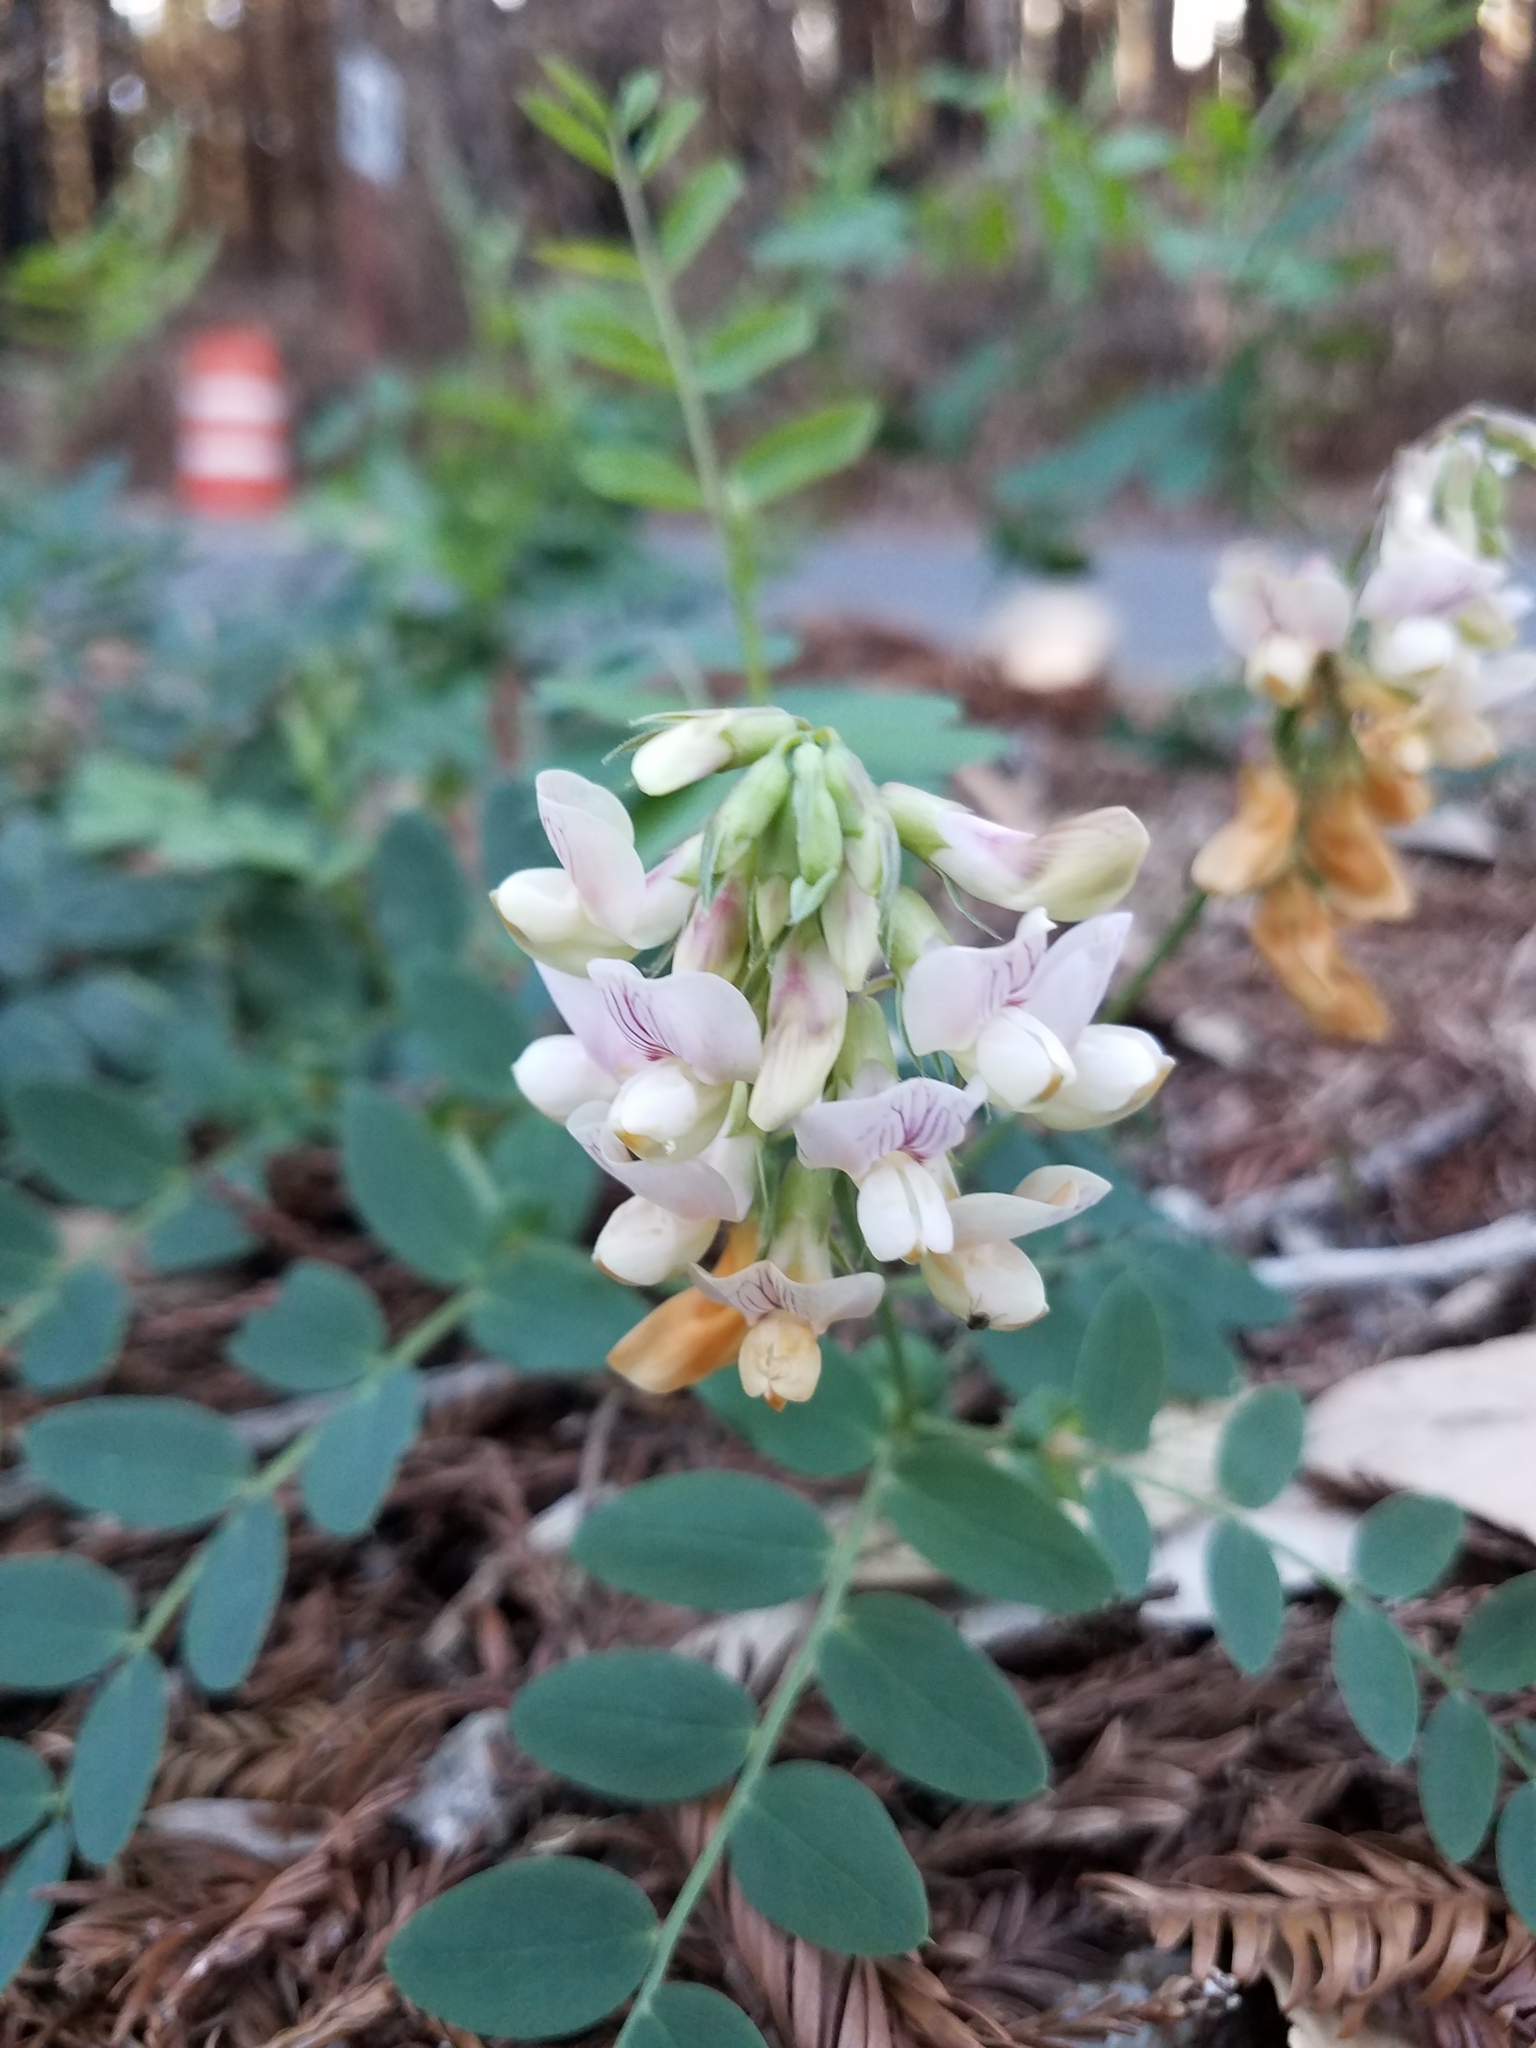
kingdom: Plantae
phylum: Tracheophyta
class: Magnoliopsida
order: Fabales
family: Fabaceae
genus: Lathyrus
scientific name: Lathyrus vestitus
